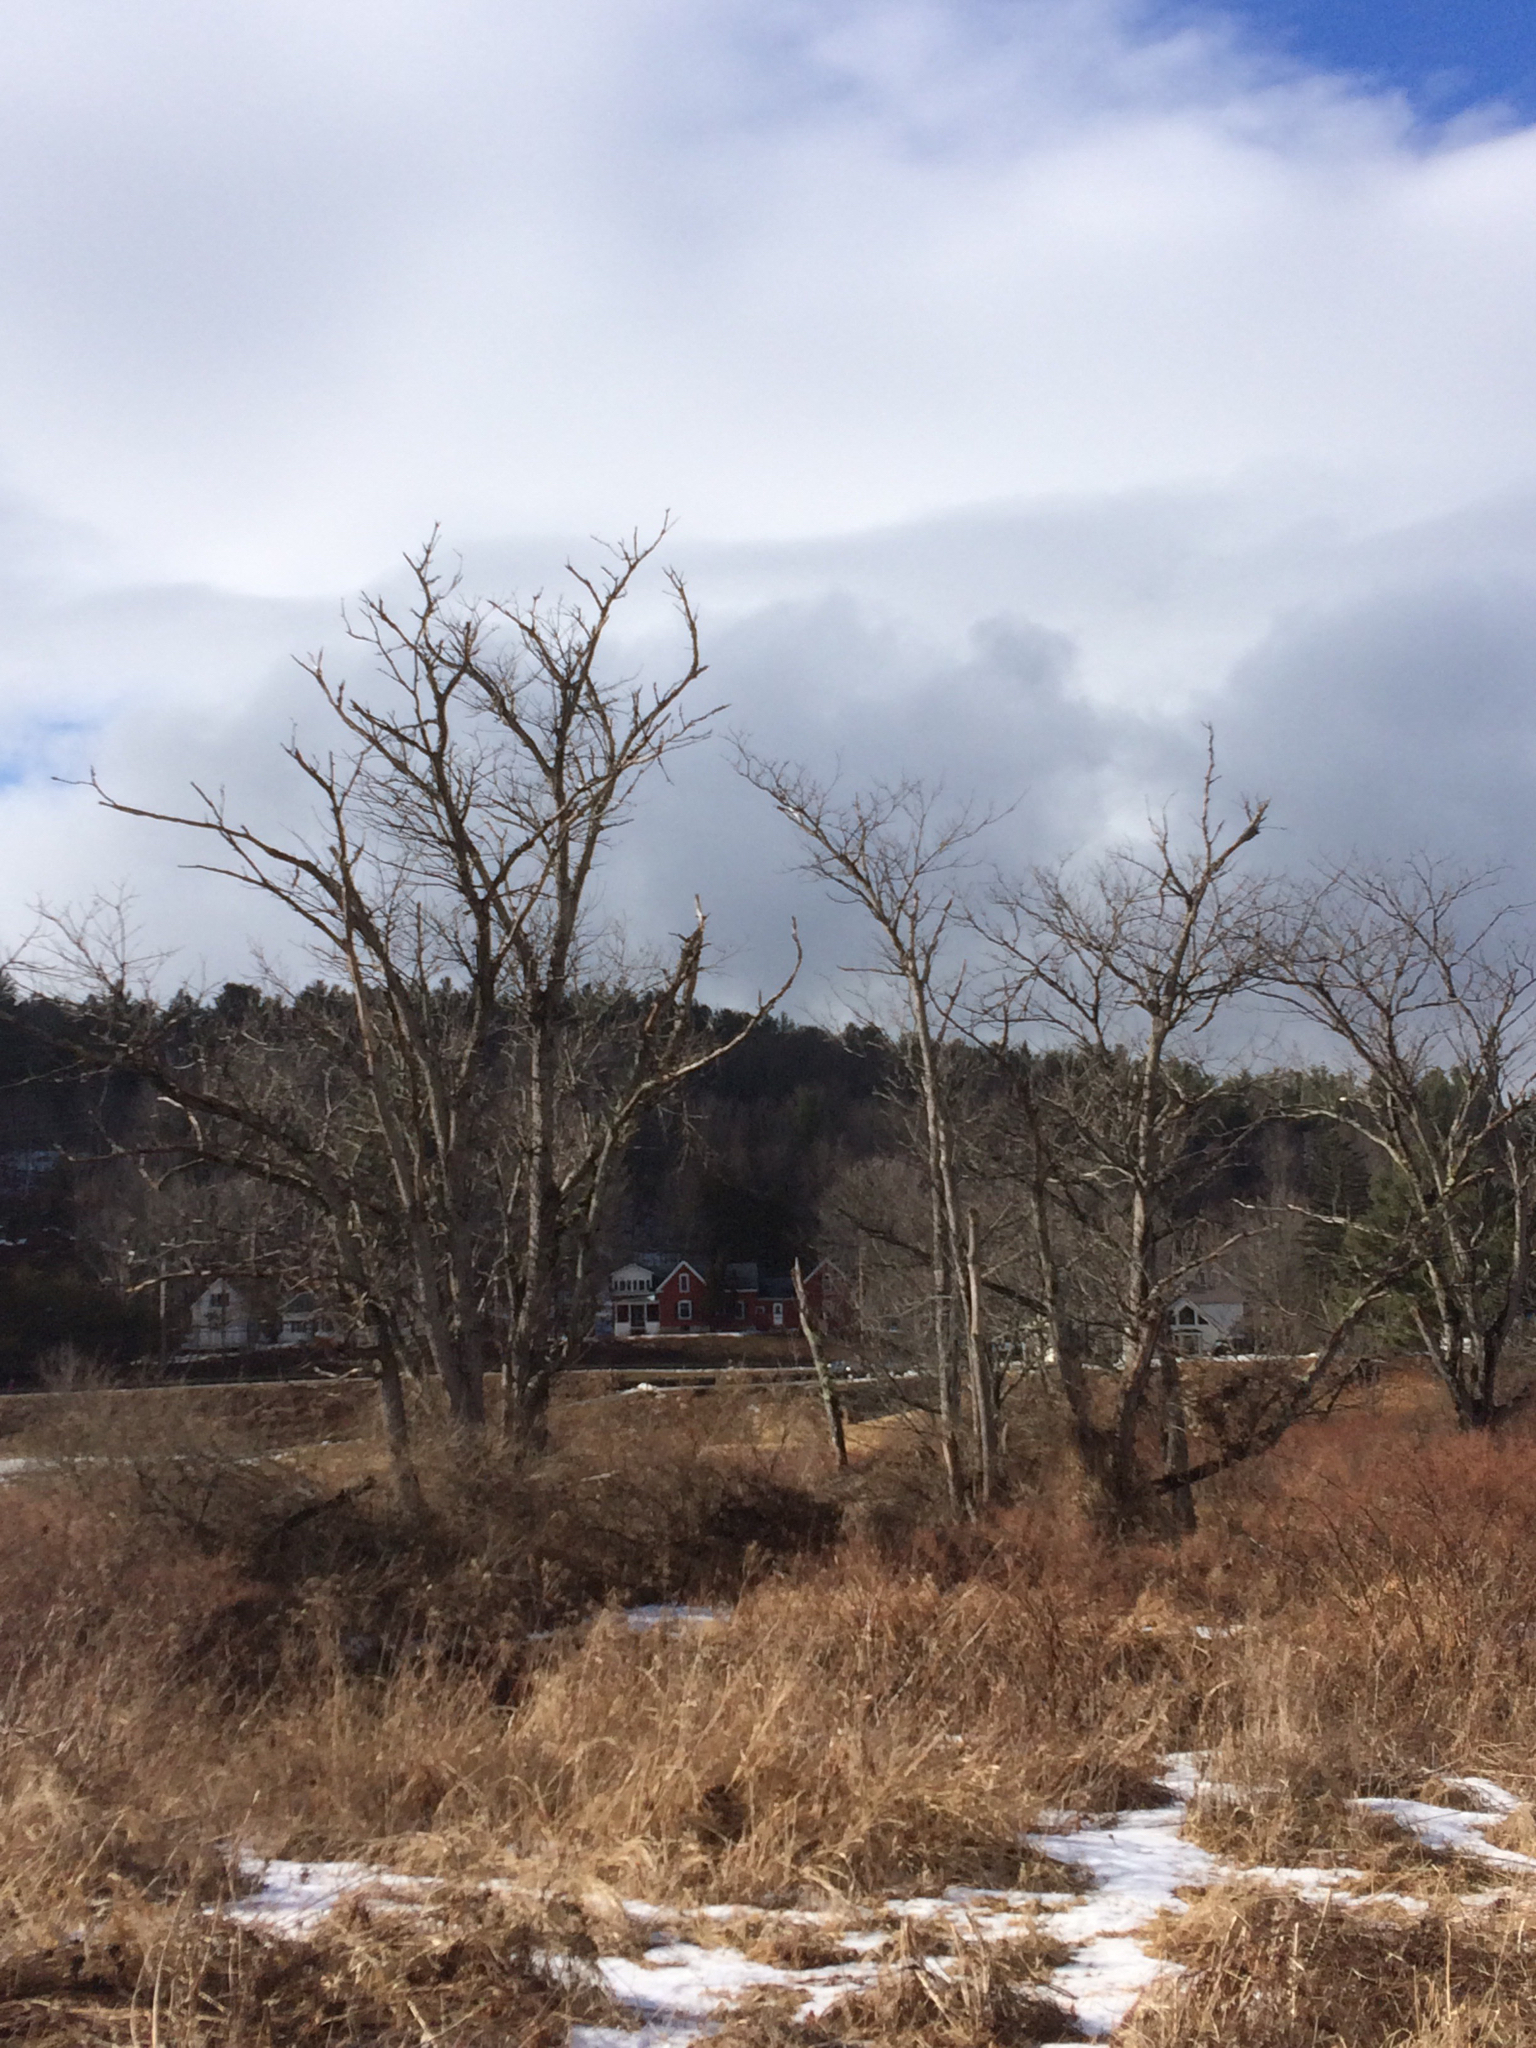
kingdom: Plantae
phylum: Tracheophyta
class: Magnoliopsida
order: Fagales
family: Juglandaceae
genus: Juglans
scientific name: Juglans cinerea
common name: Butternut
